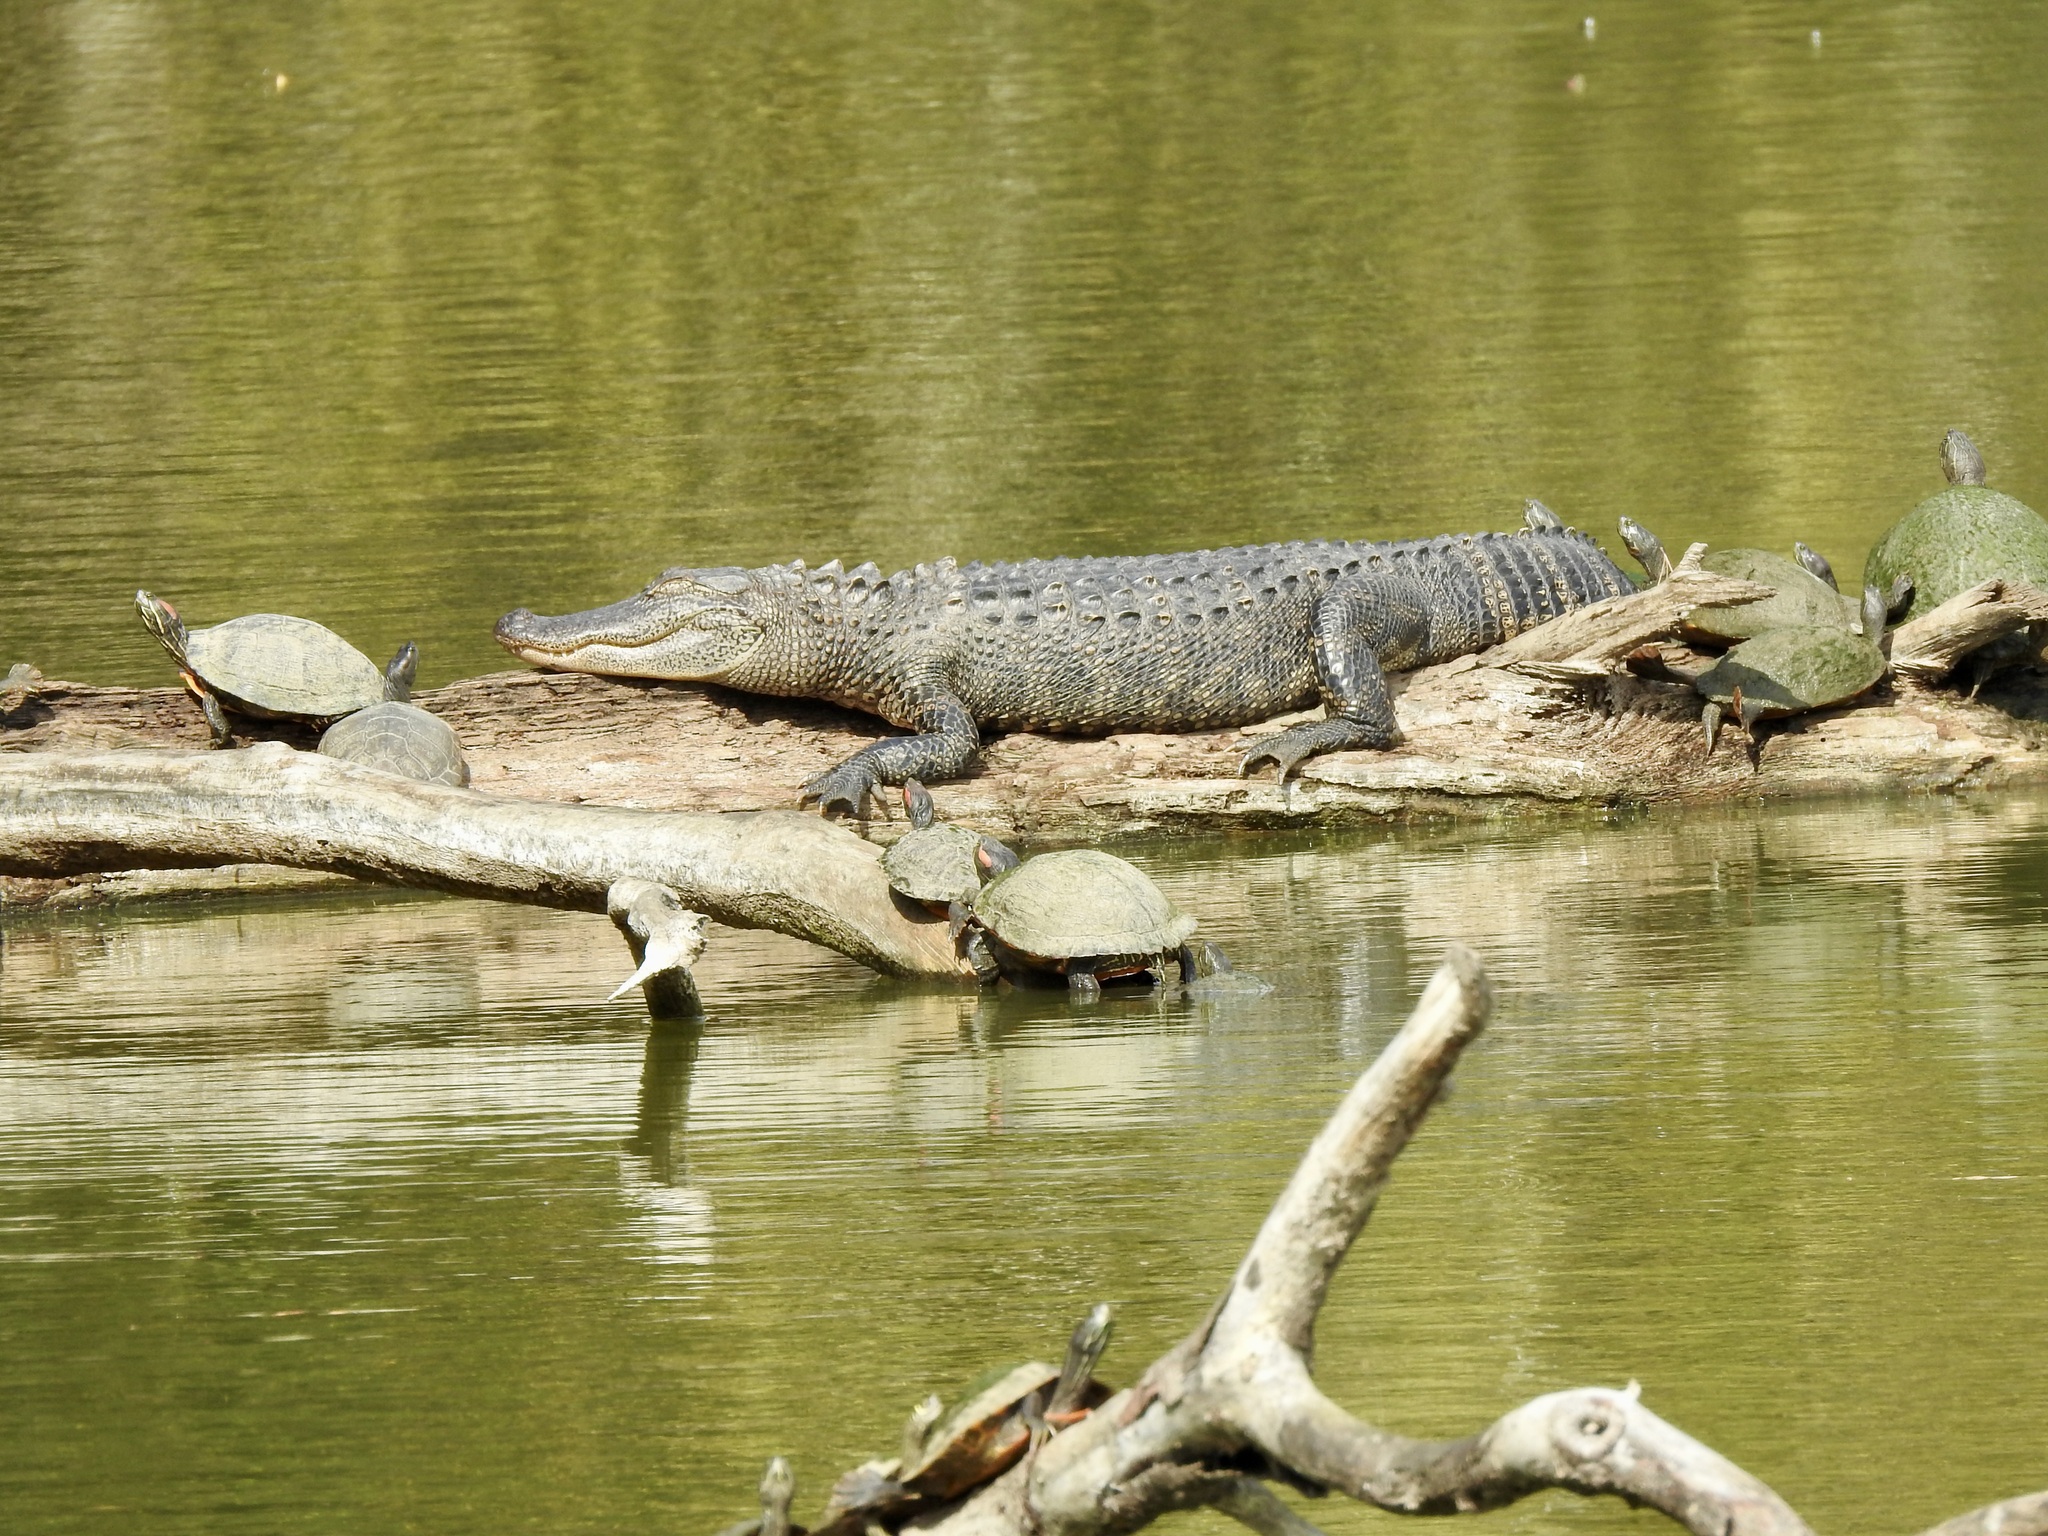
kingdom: Animalia
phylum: Chordata
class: Crocodylia
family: Alligatoridae
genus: Alligator
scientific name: Alligator mississippiensis
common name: American alligator
